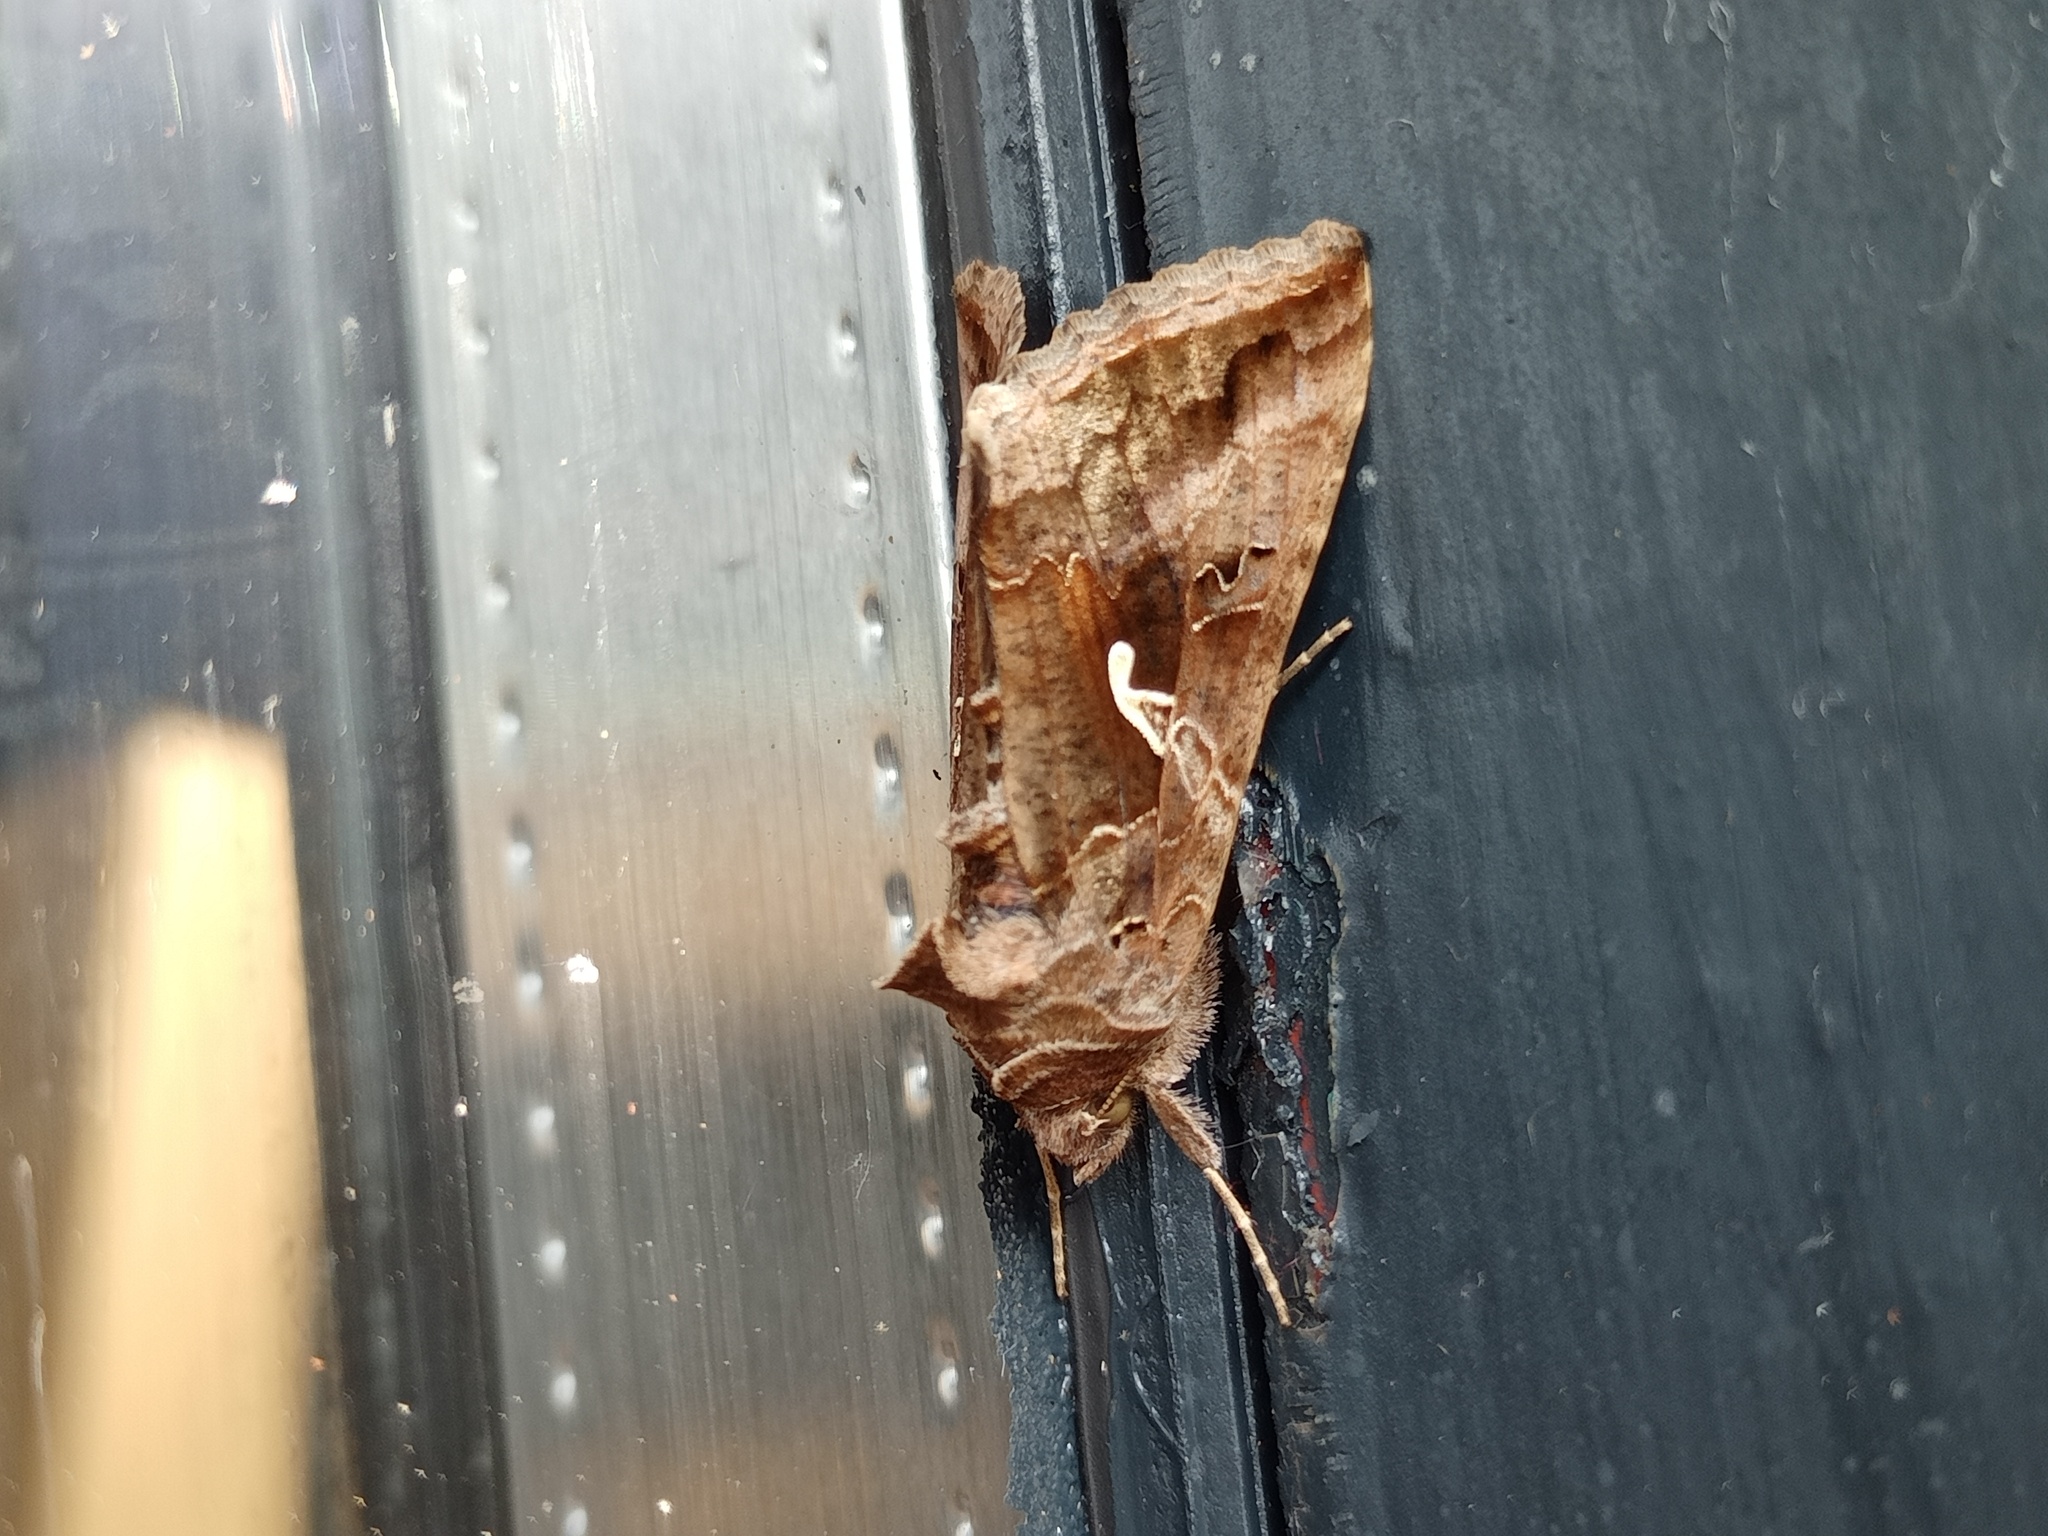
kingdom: Animalia
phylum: Arthropoda
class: Insecta
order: Lepidoptera
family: Noctuidae
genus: Autographa
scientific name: Autographa gamma
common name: Silver y
